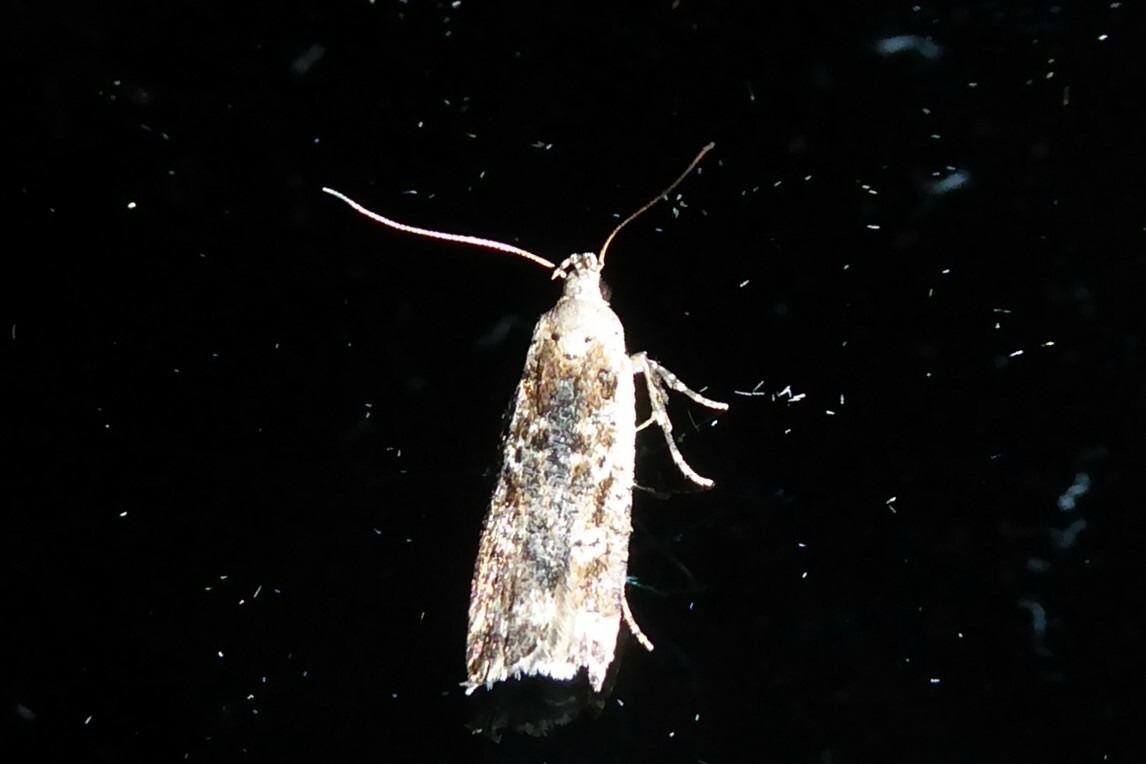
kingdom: Animalia
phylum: Arthropoda
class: Insecta
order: Lepidoptera
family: Gelechiidae
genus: Anisoplaca
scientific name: Anisoplaca achyrota
